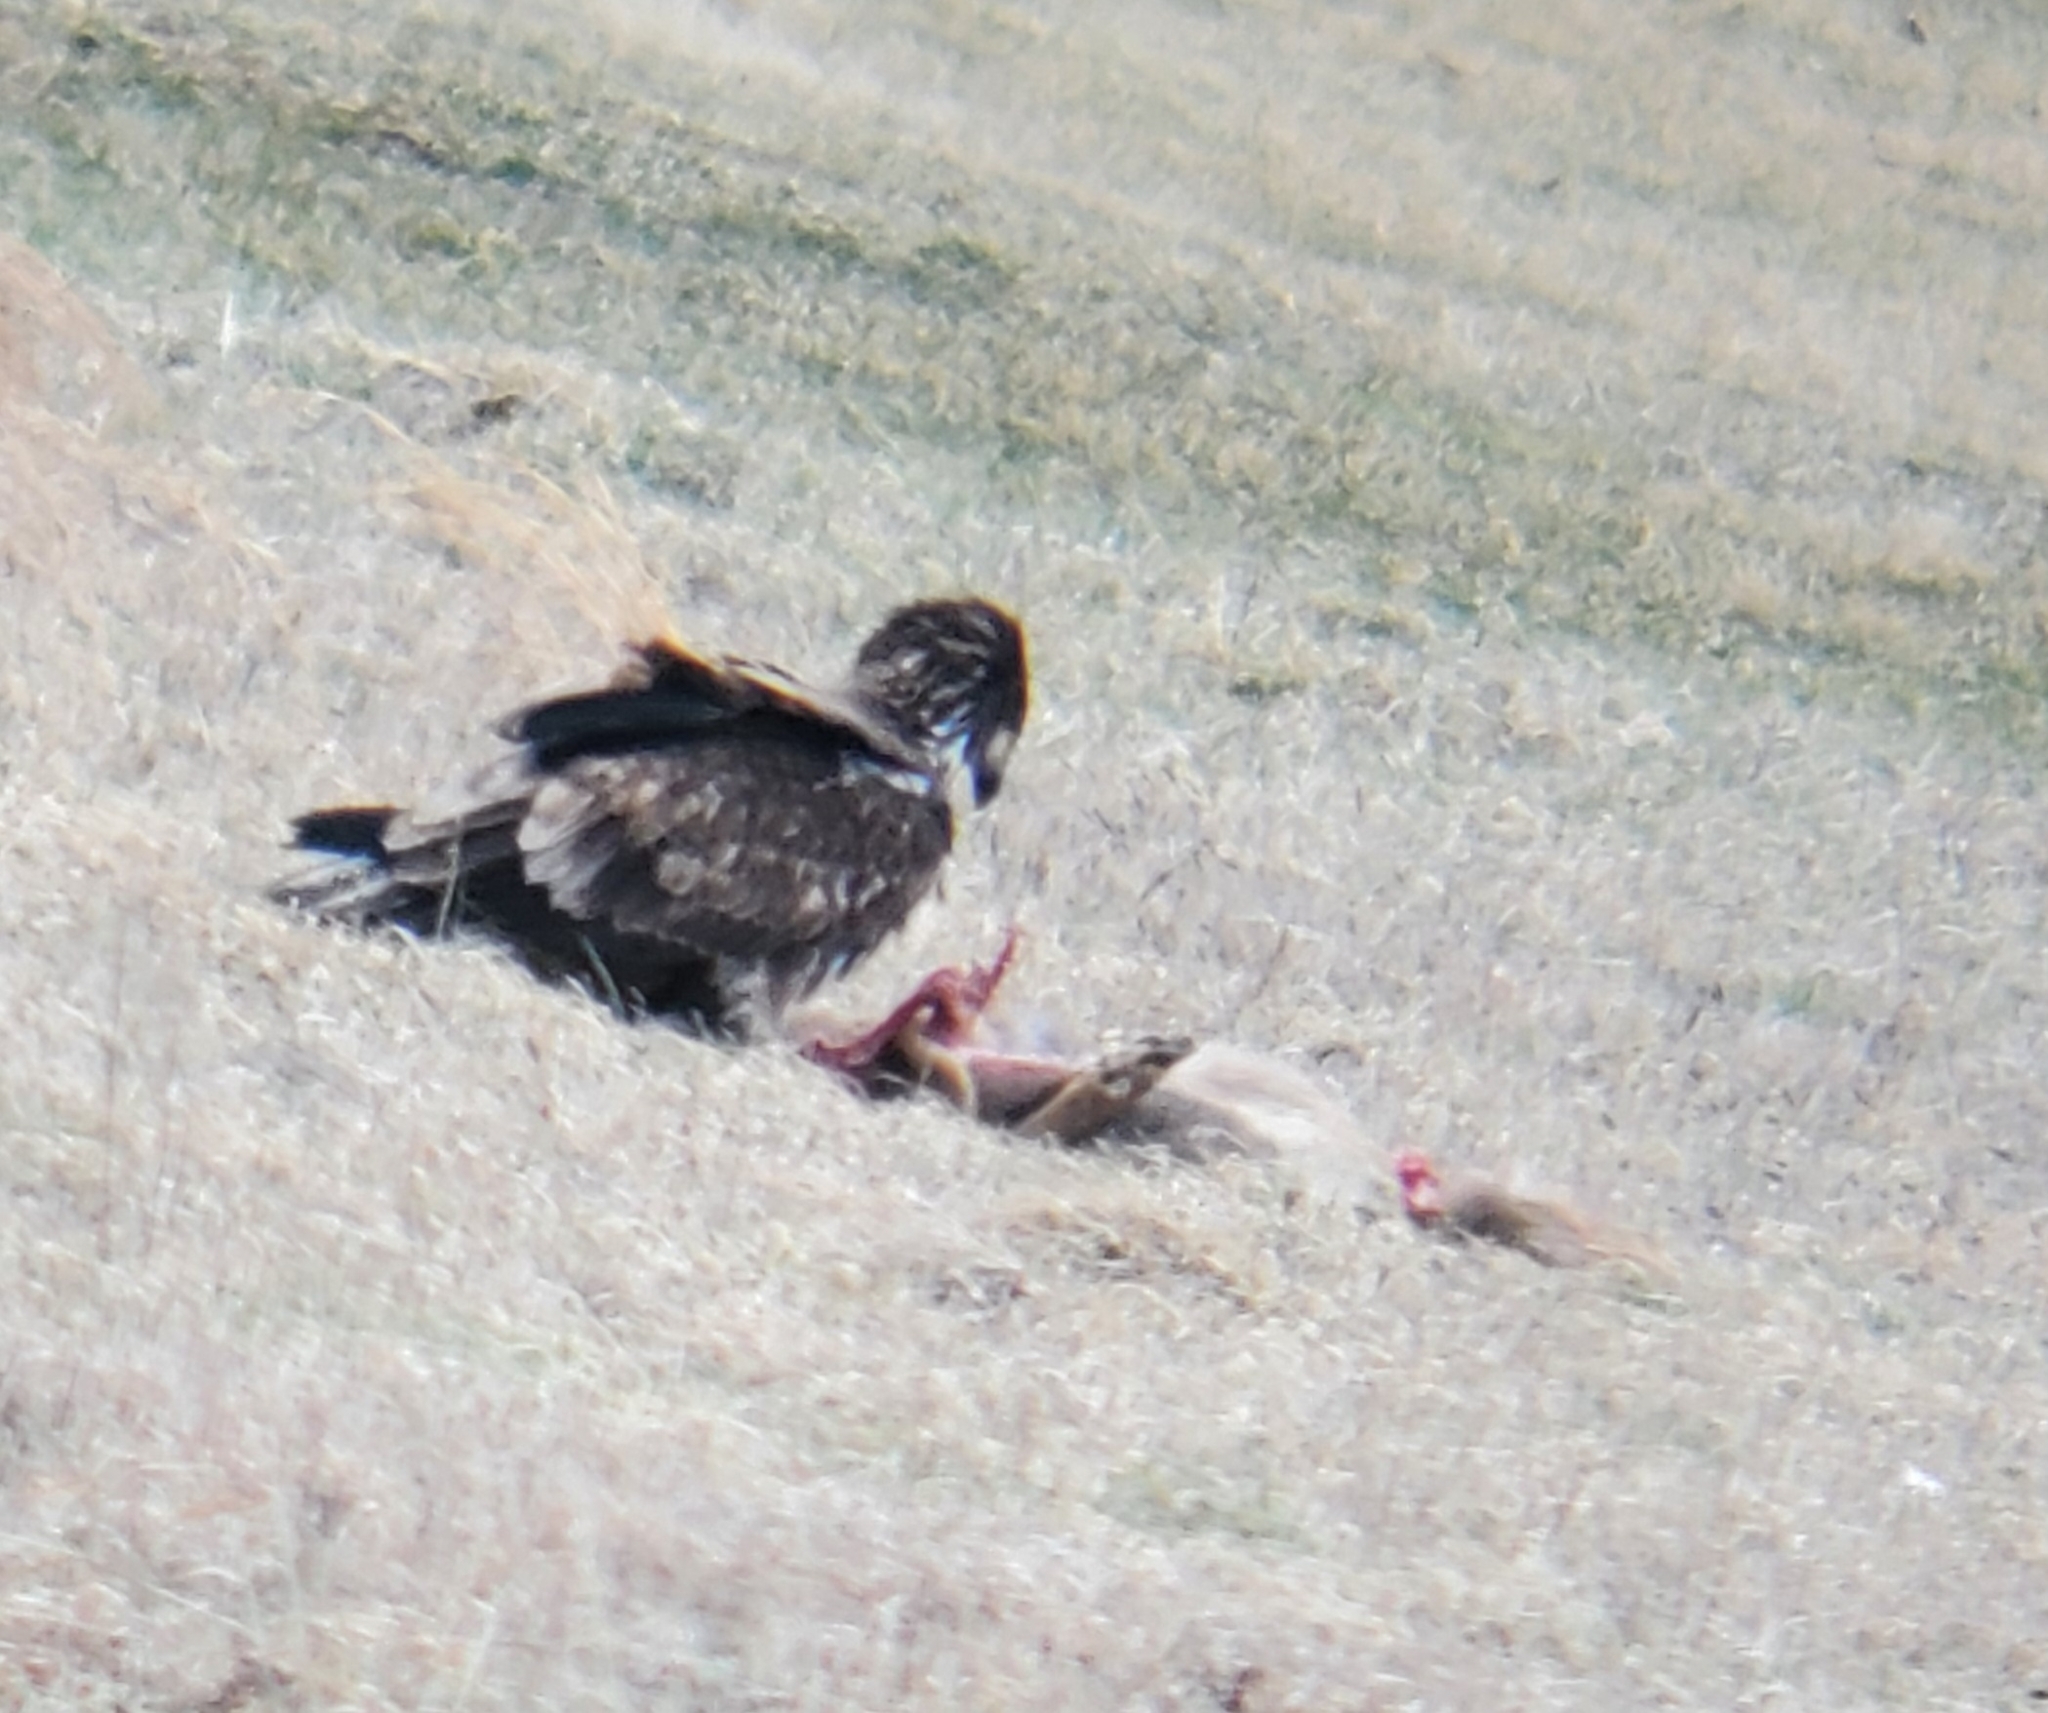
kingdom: Animalia
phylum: Chordata
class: Aves
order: Accipitriformes
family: Accipitridae
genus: Haliaeetus
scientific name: Haliaeetus leucocephalus
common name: Bald eagle
